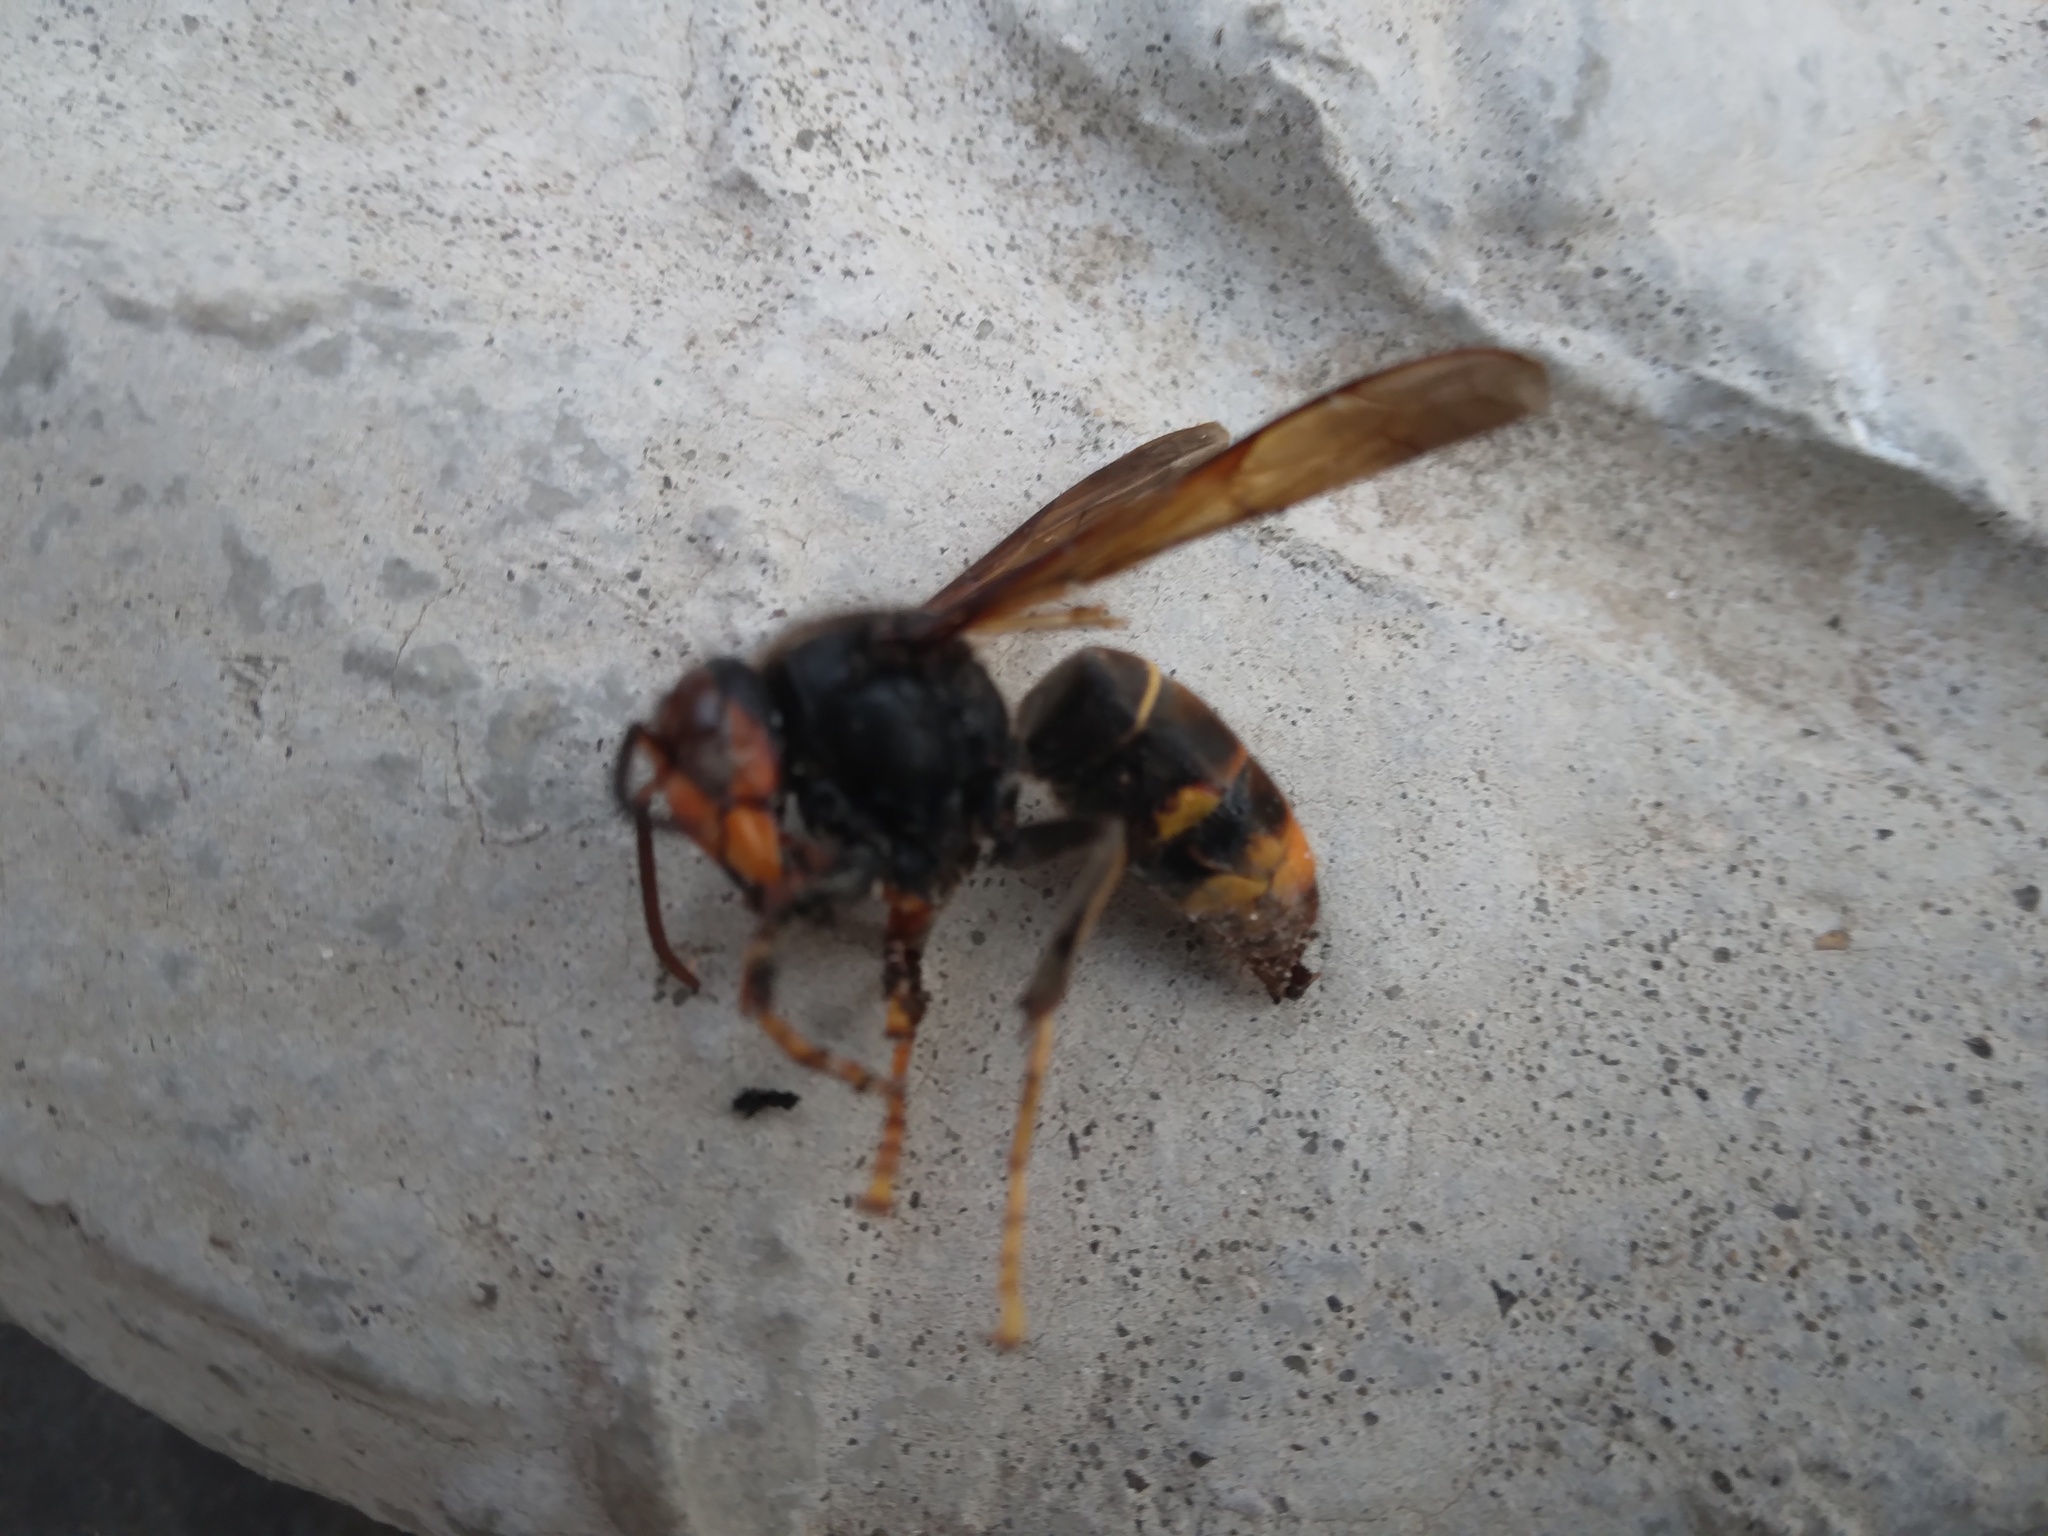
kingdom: Animalia
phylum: Arthropoda
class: Insecta
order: Hymenoptera
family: Vespidae
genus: Vespa
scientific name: Vespa velutina
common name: Asian hornet
